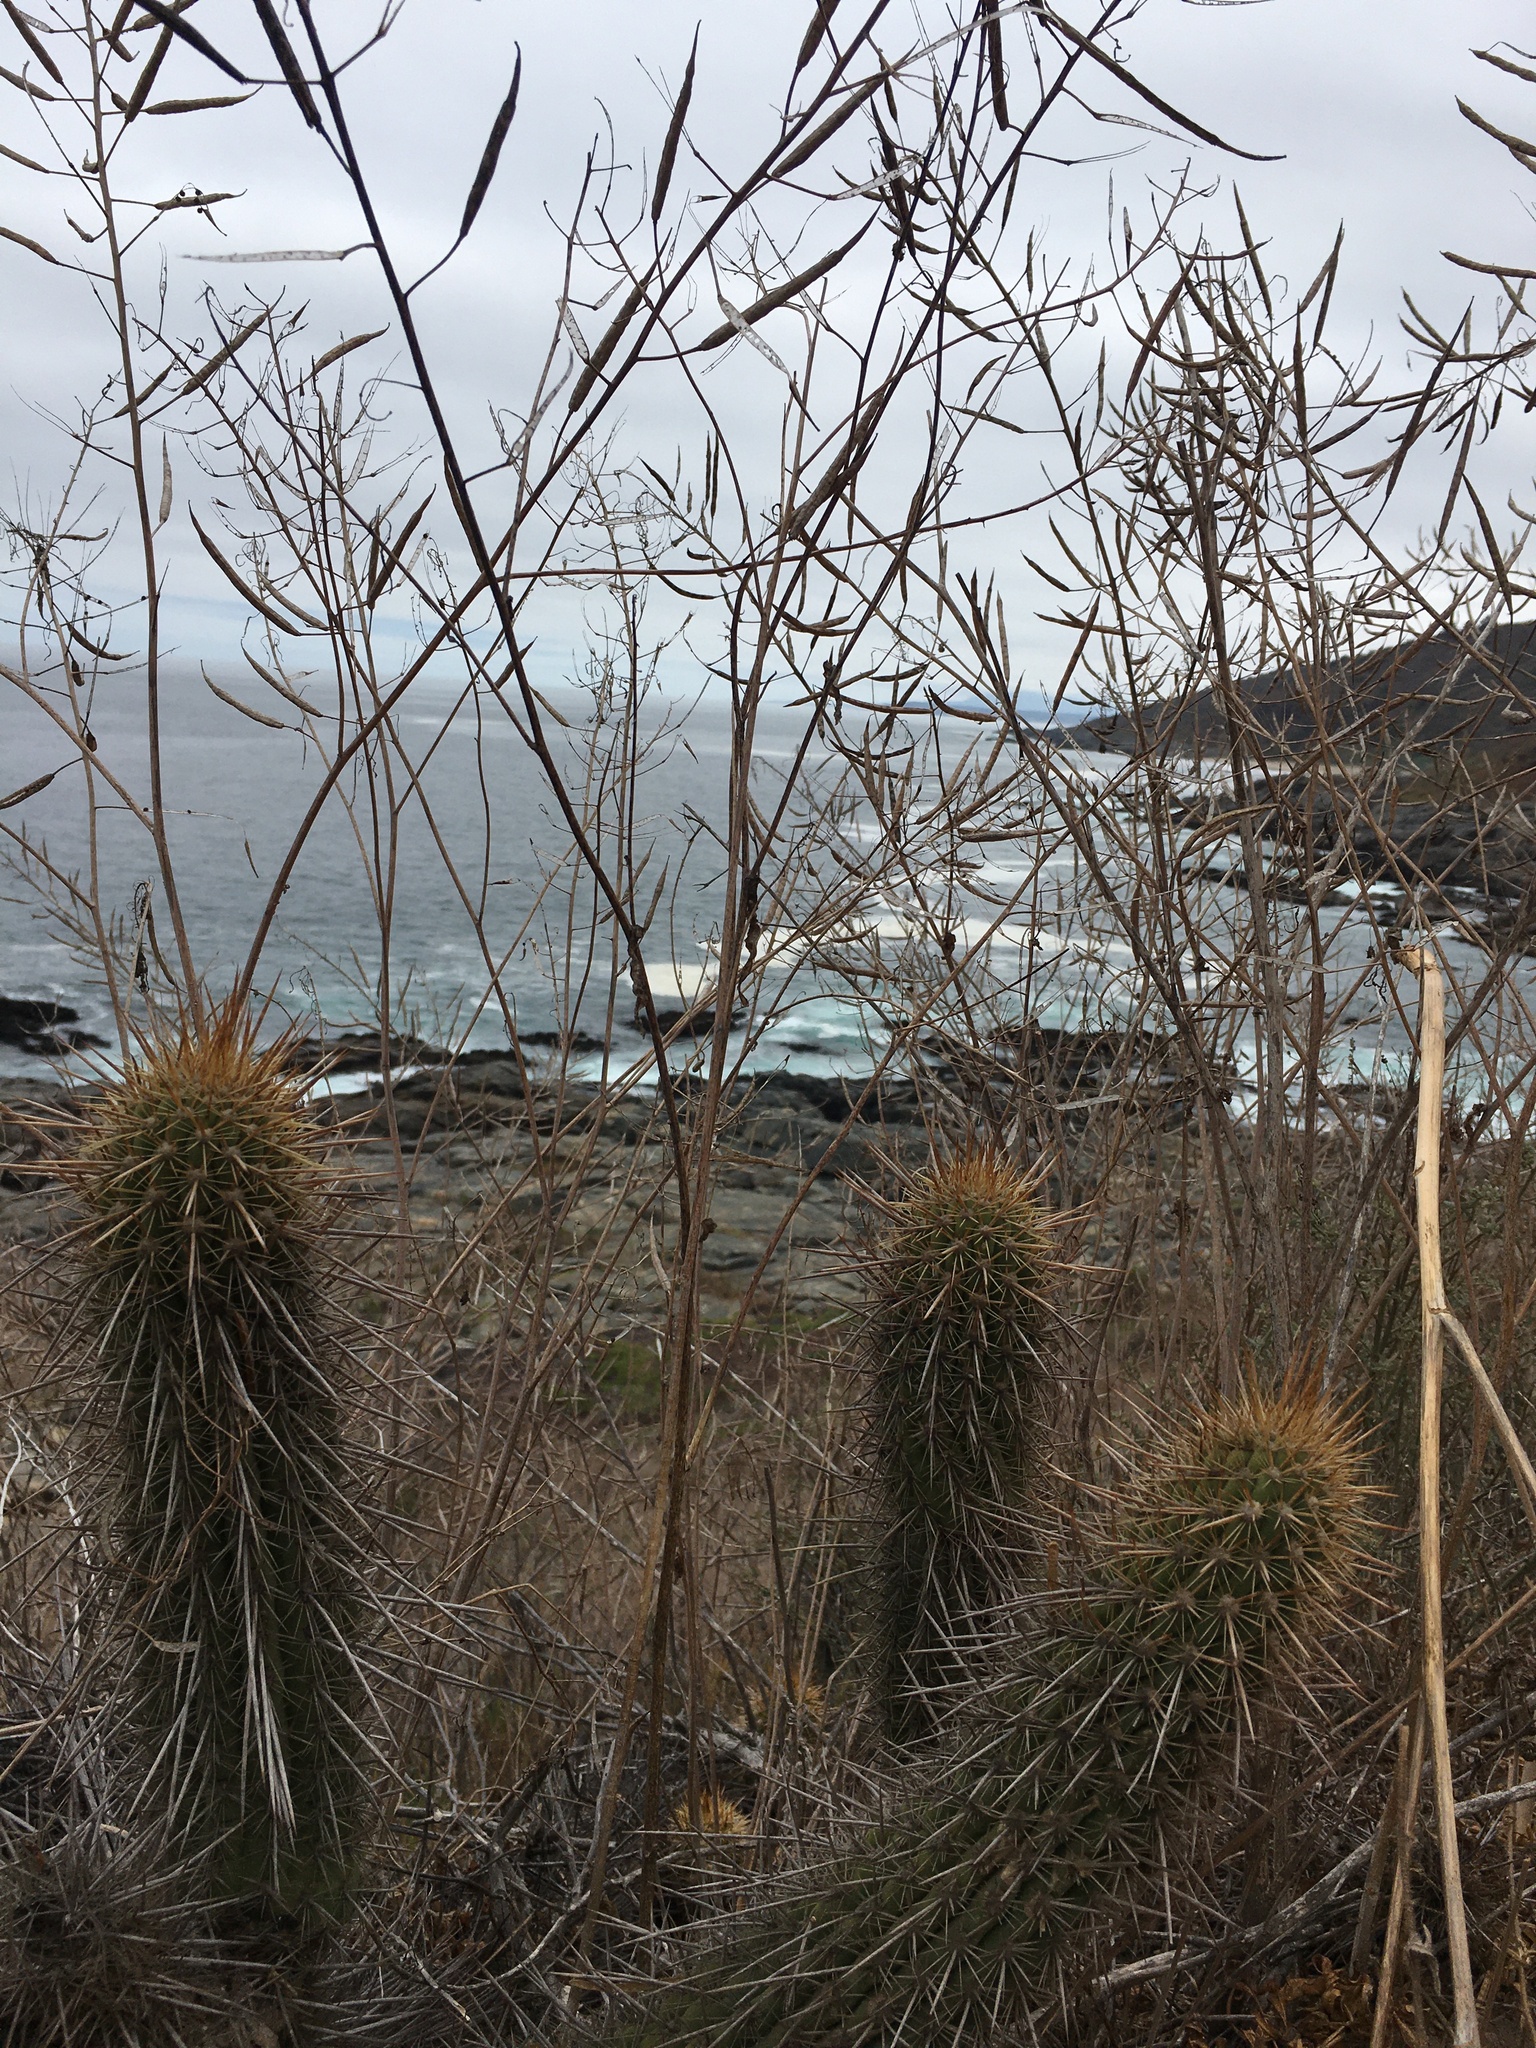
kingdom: Plantae
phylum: Tracheophyta
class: Magnoliopsida
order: Caryophyllales
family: Cactaceae
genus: Leucostele
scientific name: Leucostele chiloensis
